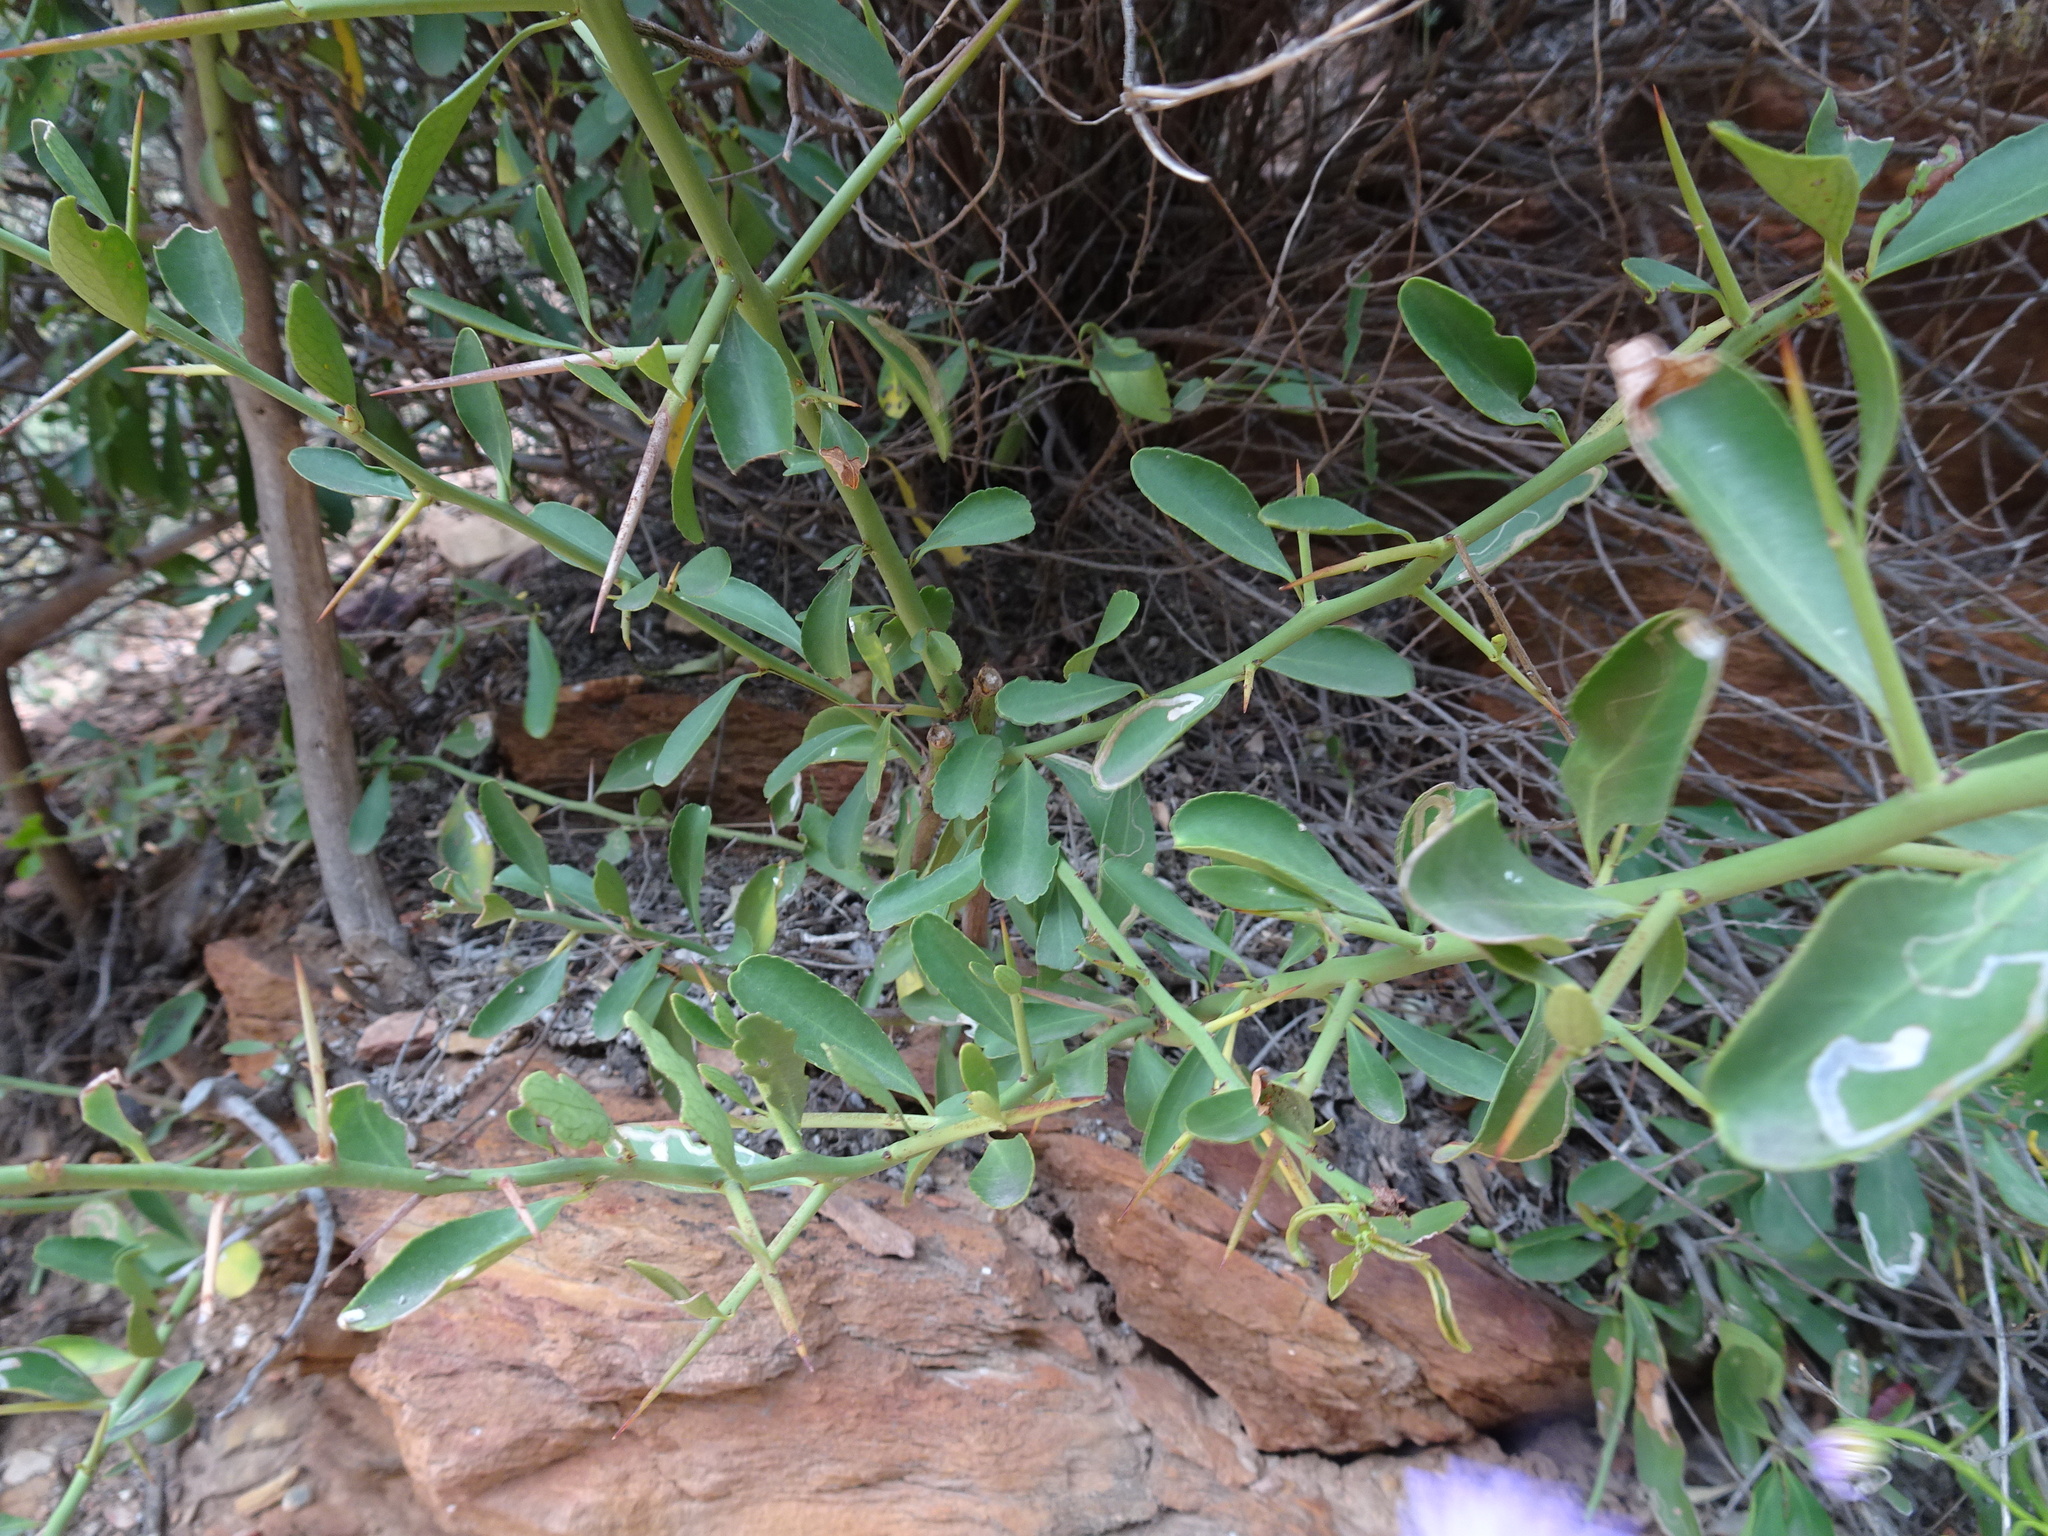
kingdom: Plantae
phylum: Tracheophyta
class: Magnoliopsida
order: Celastrales
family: Celastraceae
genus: Gymnosporia
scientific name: Gymnosporia buxifolia
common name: Common spike-thorn
